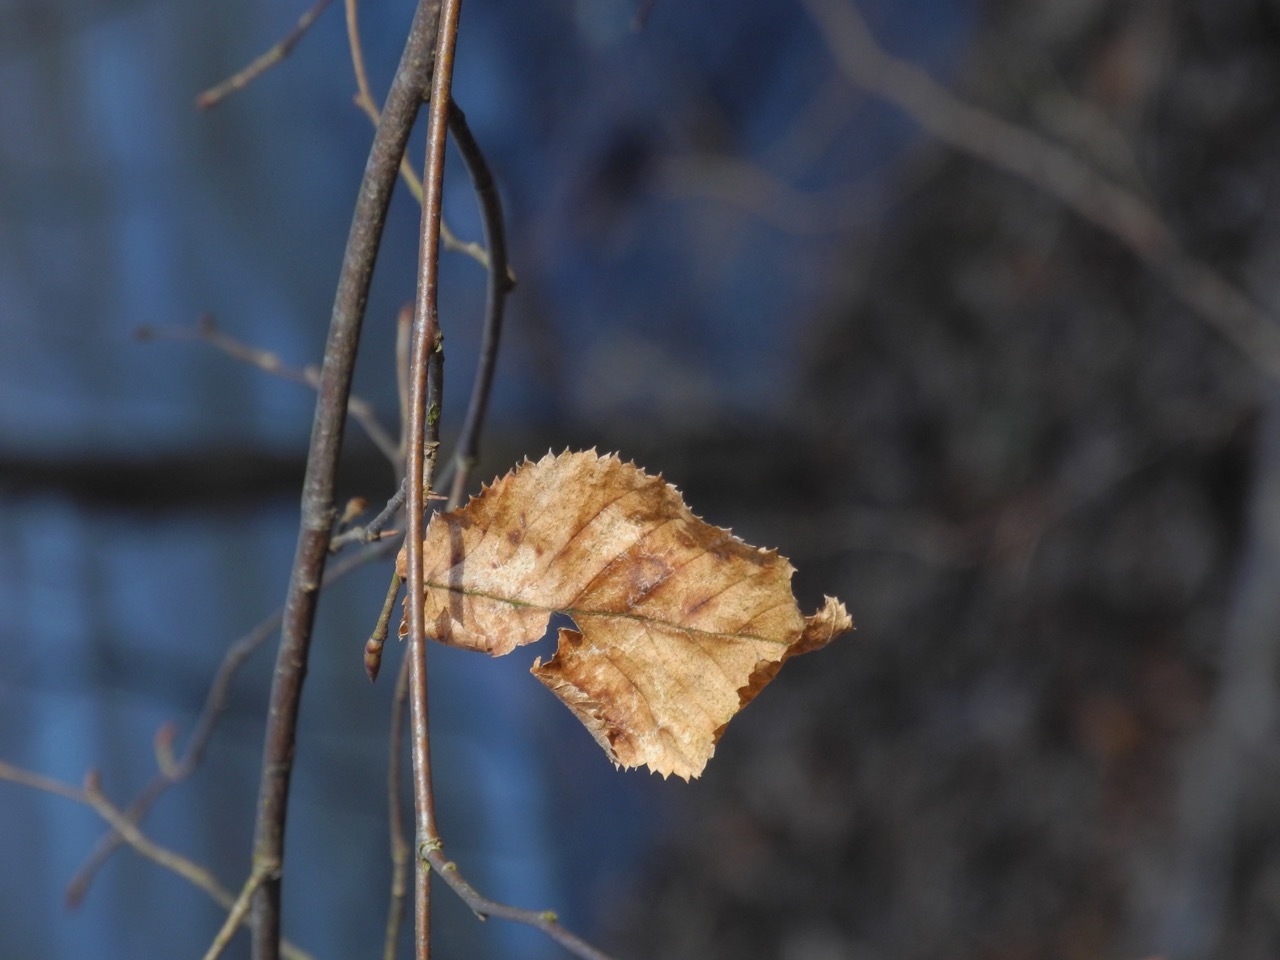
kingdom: Plantae
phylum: Tracheophyta
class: Magnoliopsida
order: Fagales
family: Betulaceae
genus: Ostrya
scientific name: Ostrya virginiana
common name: Ironwood
